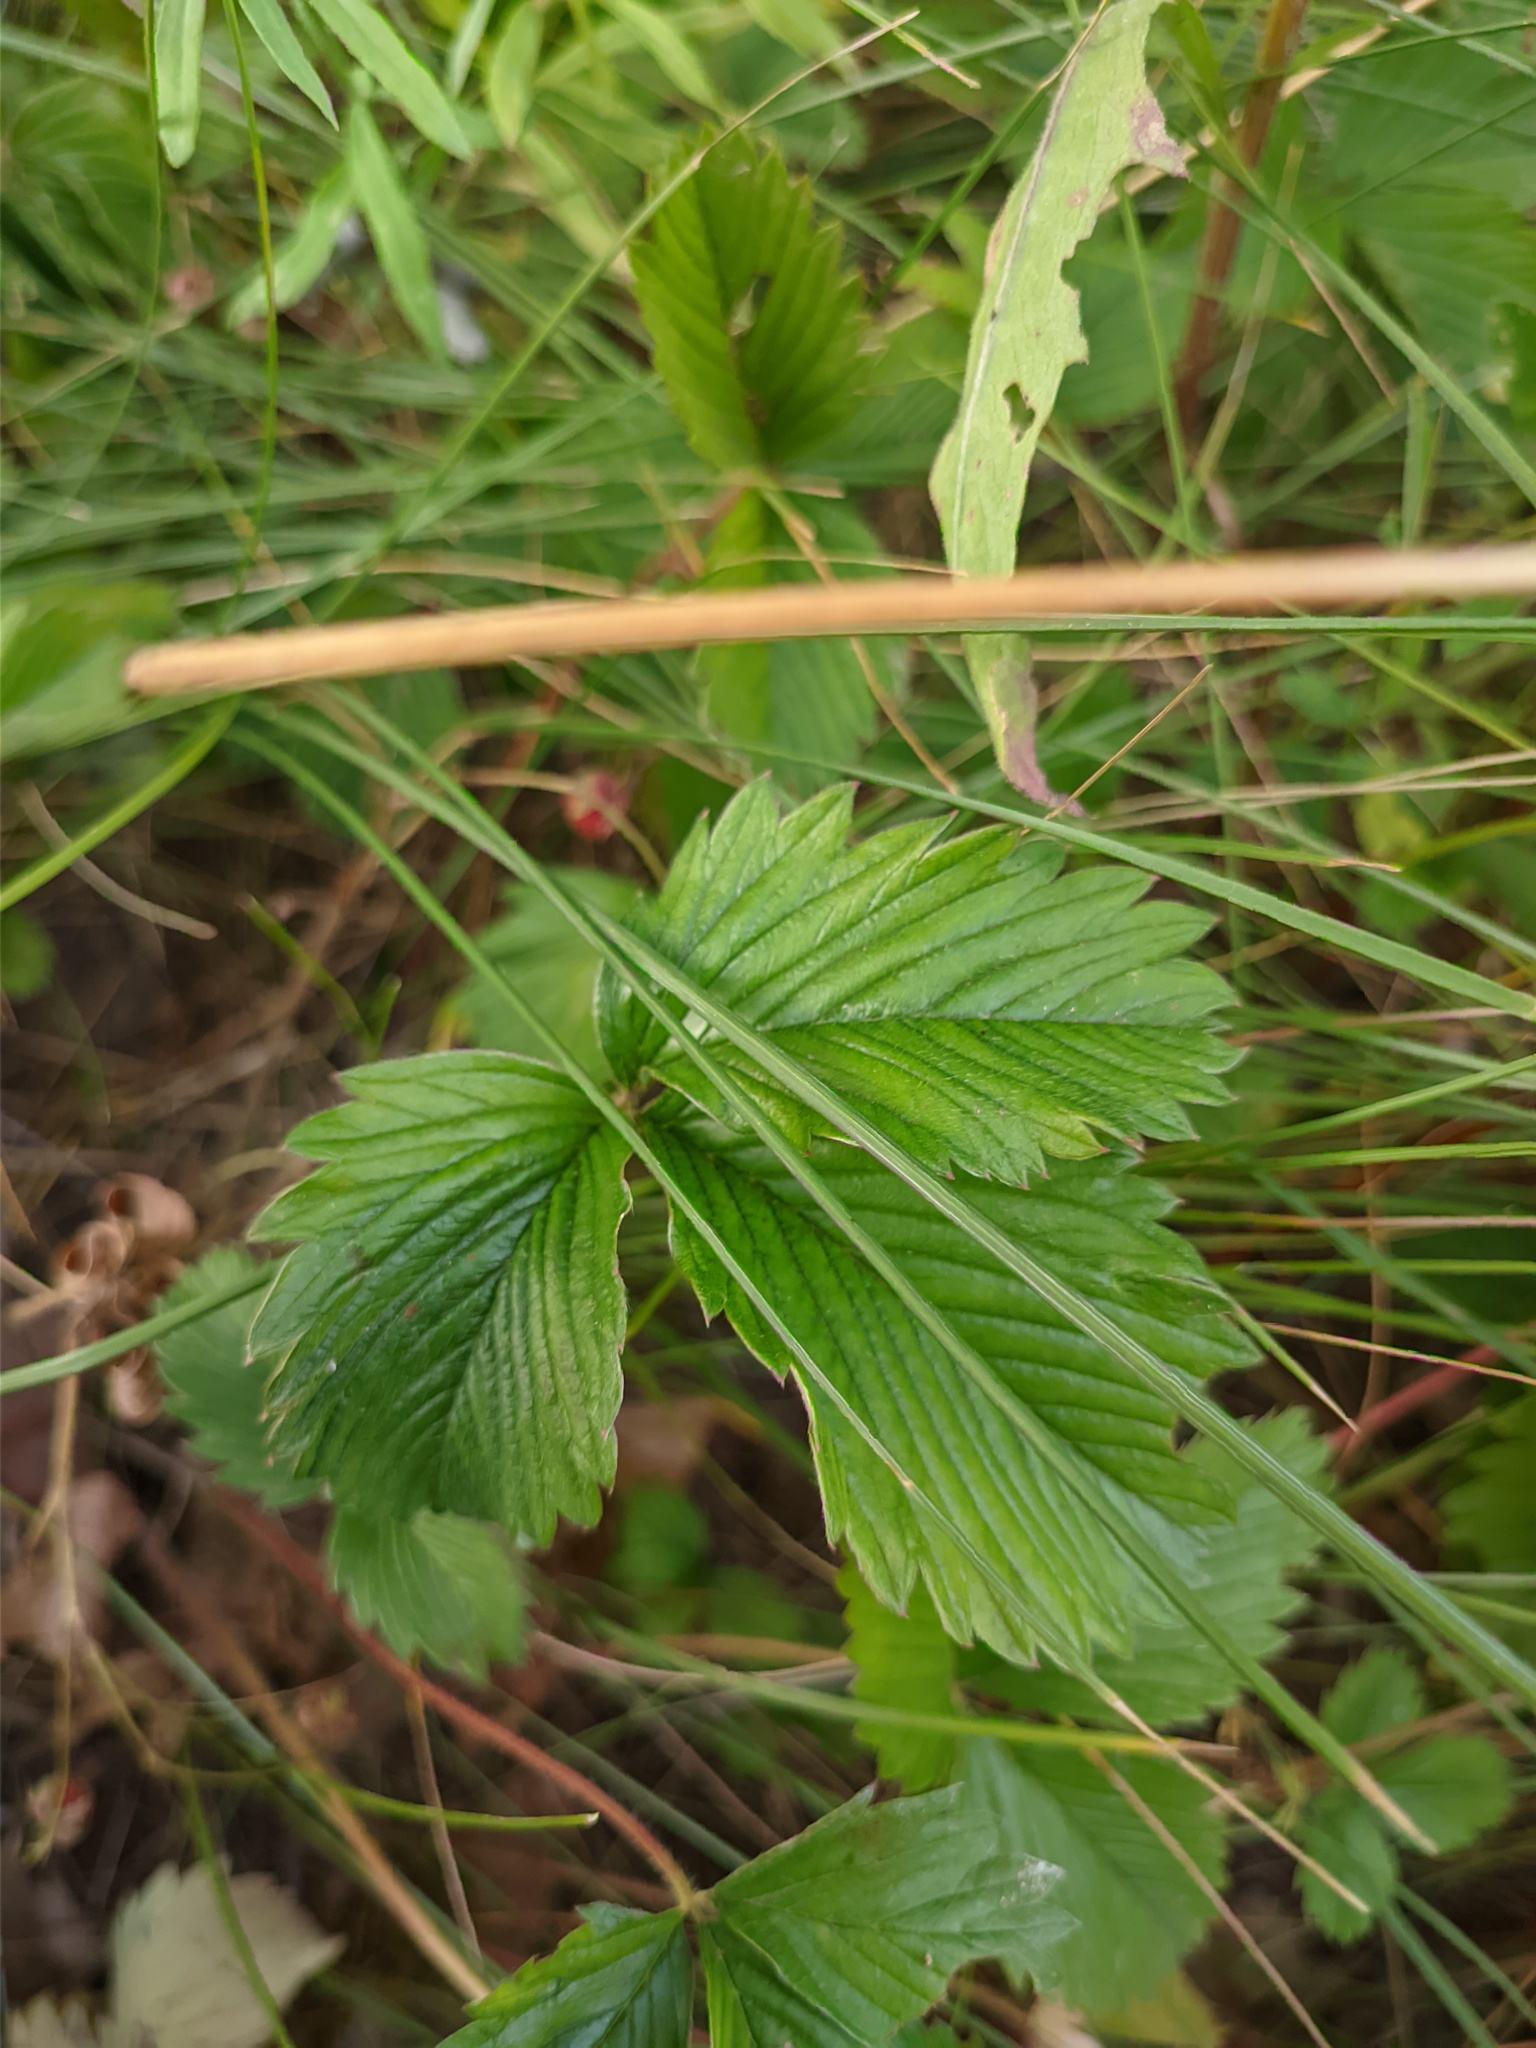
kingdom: Plantae
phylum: Tracheophyta
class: Magnoliopsida
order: Rosales
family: Rosaceae
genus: Fragaria
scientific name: Fragaria viridis
